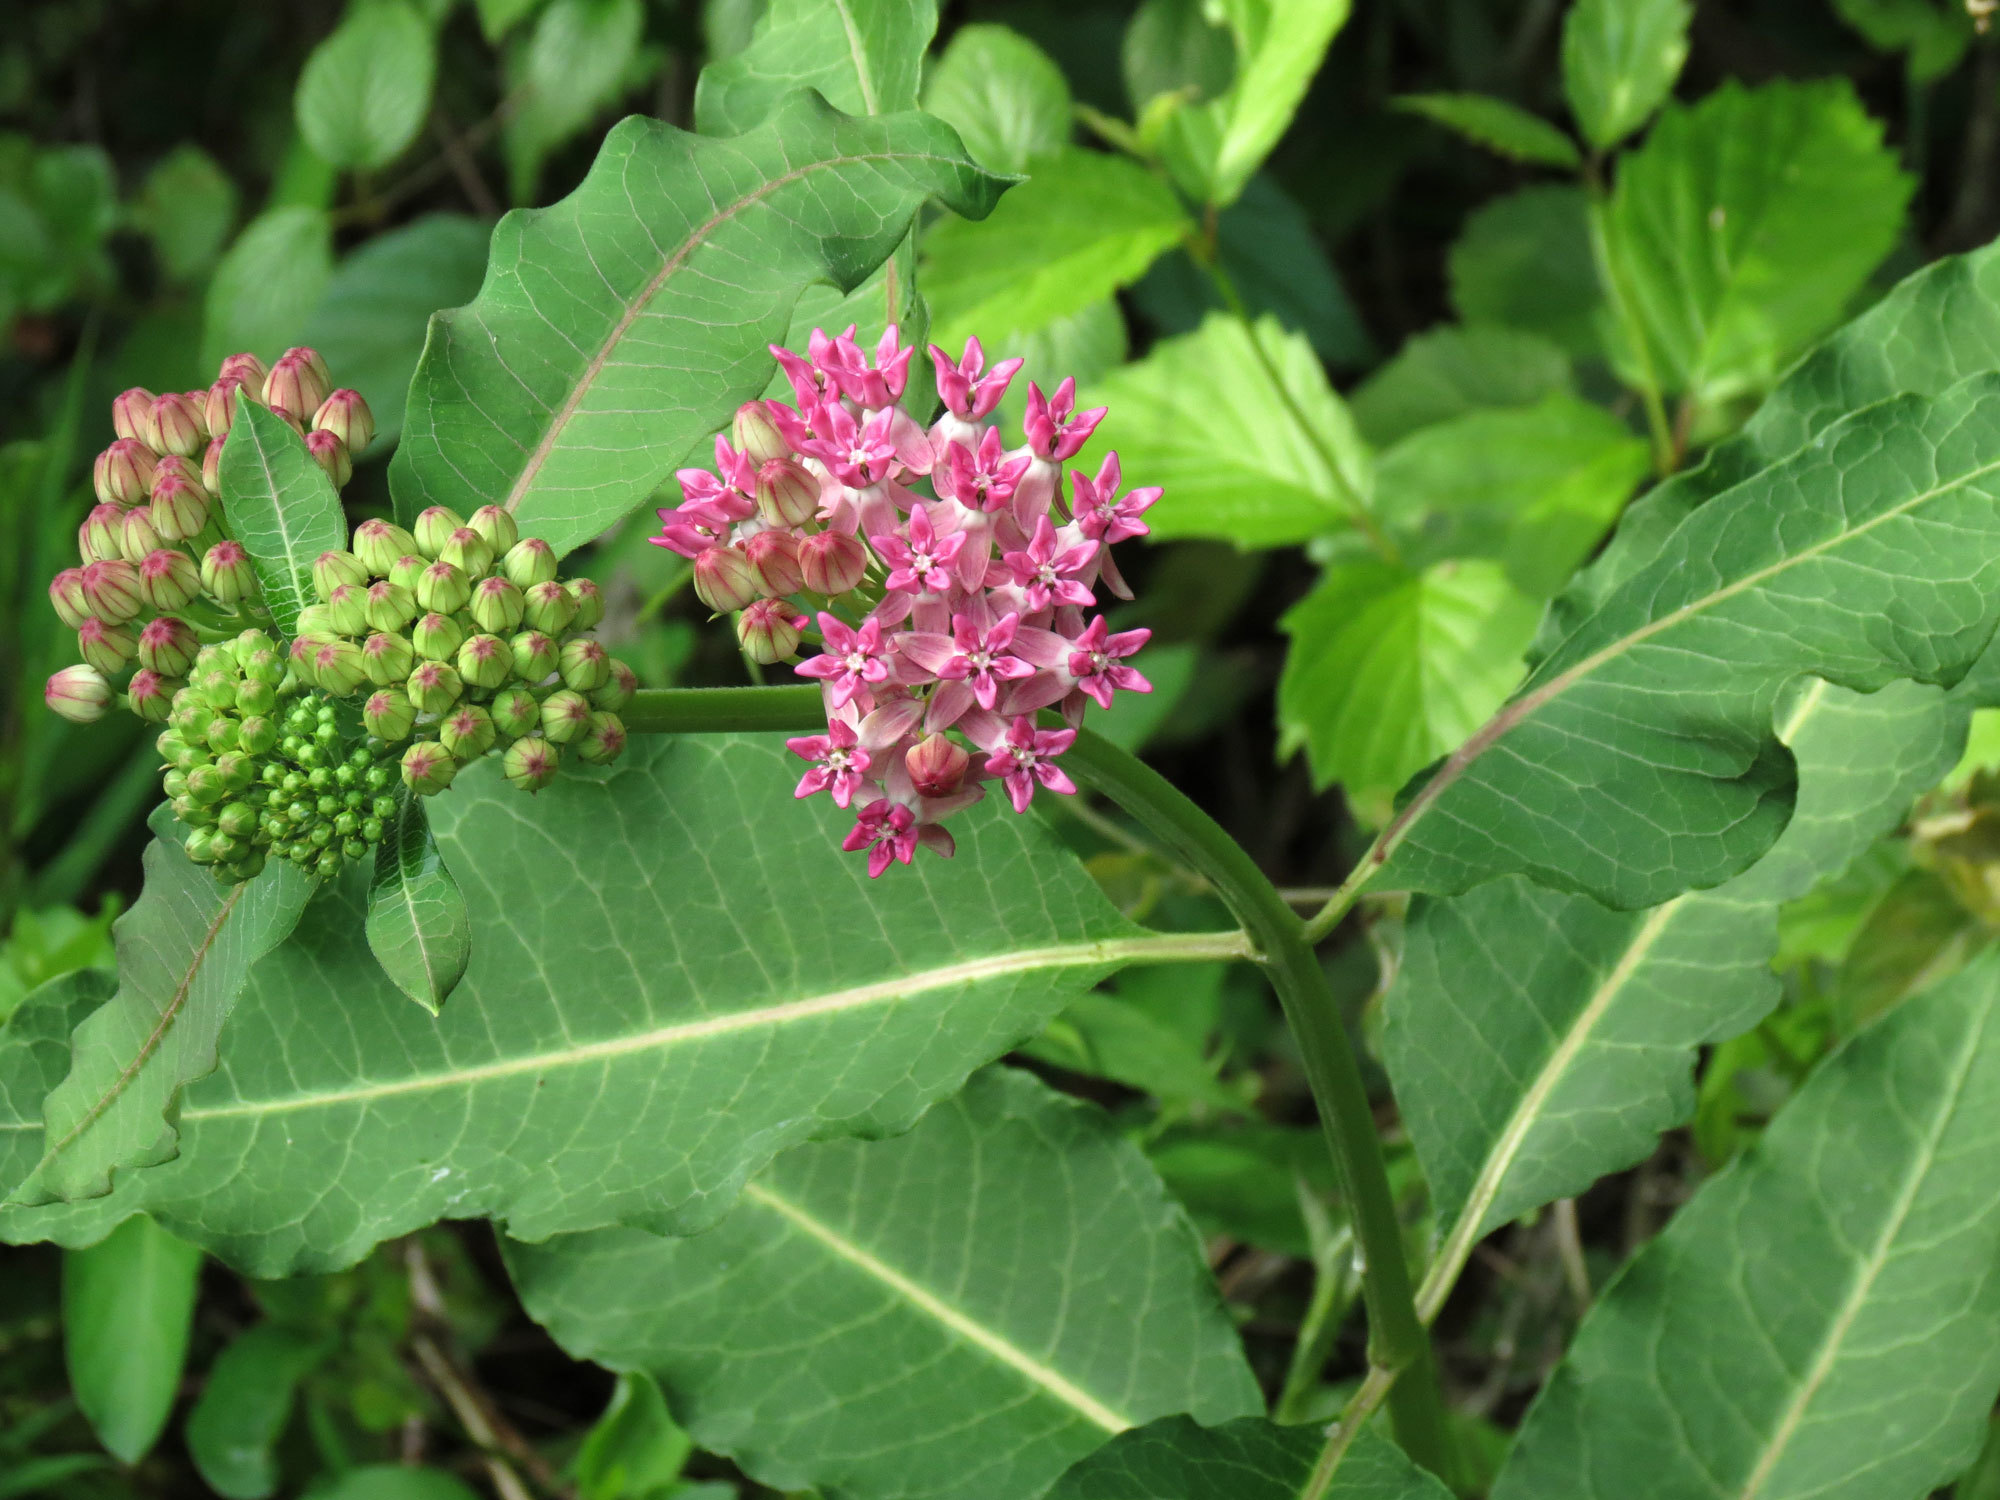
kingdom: Plantae
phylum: Tracheophyta
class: Magnoliopsida
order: Gentianales
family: Apocynaceae
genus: Asclepias
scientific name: Asclepias purpurascens
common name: Purple milkweed
